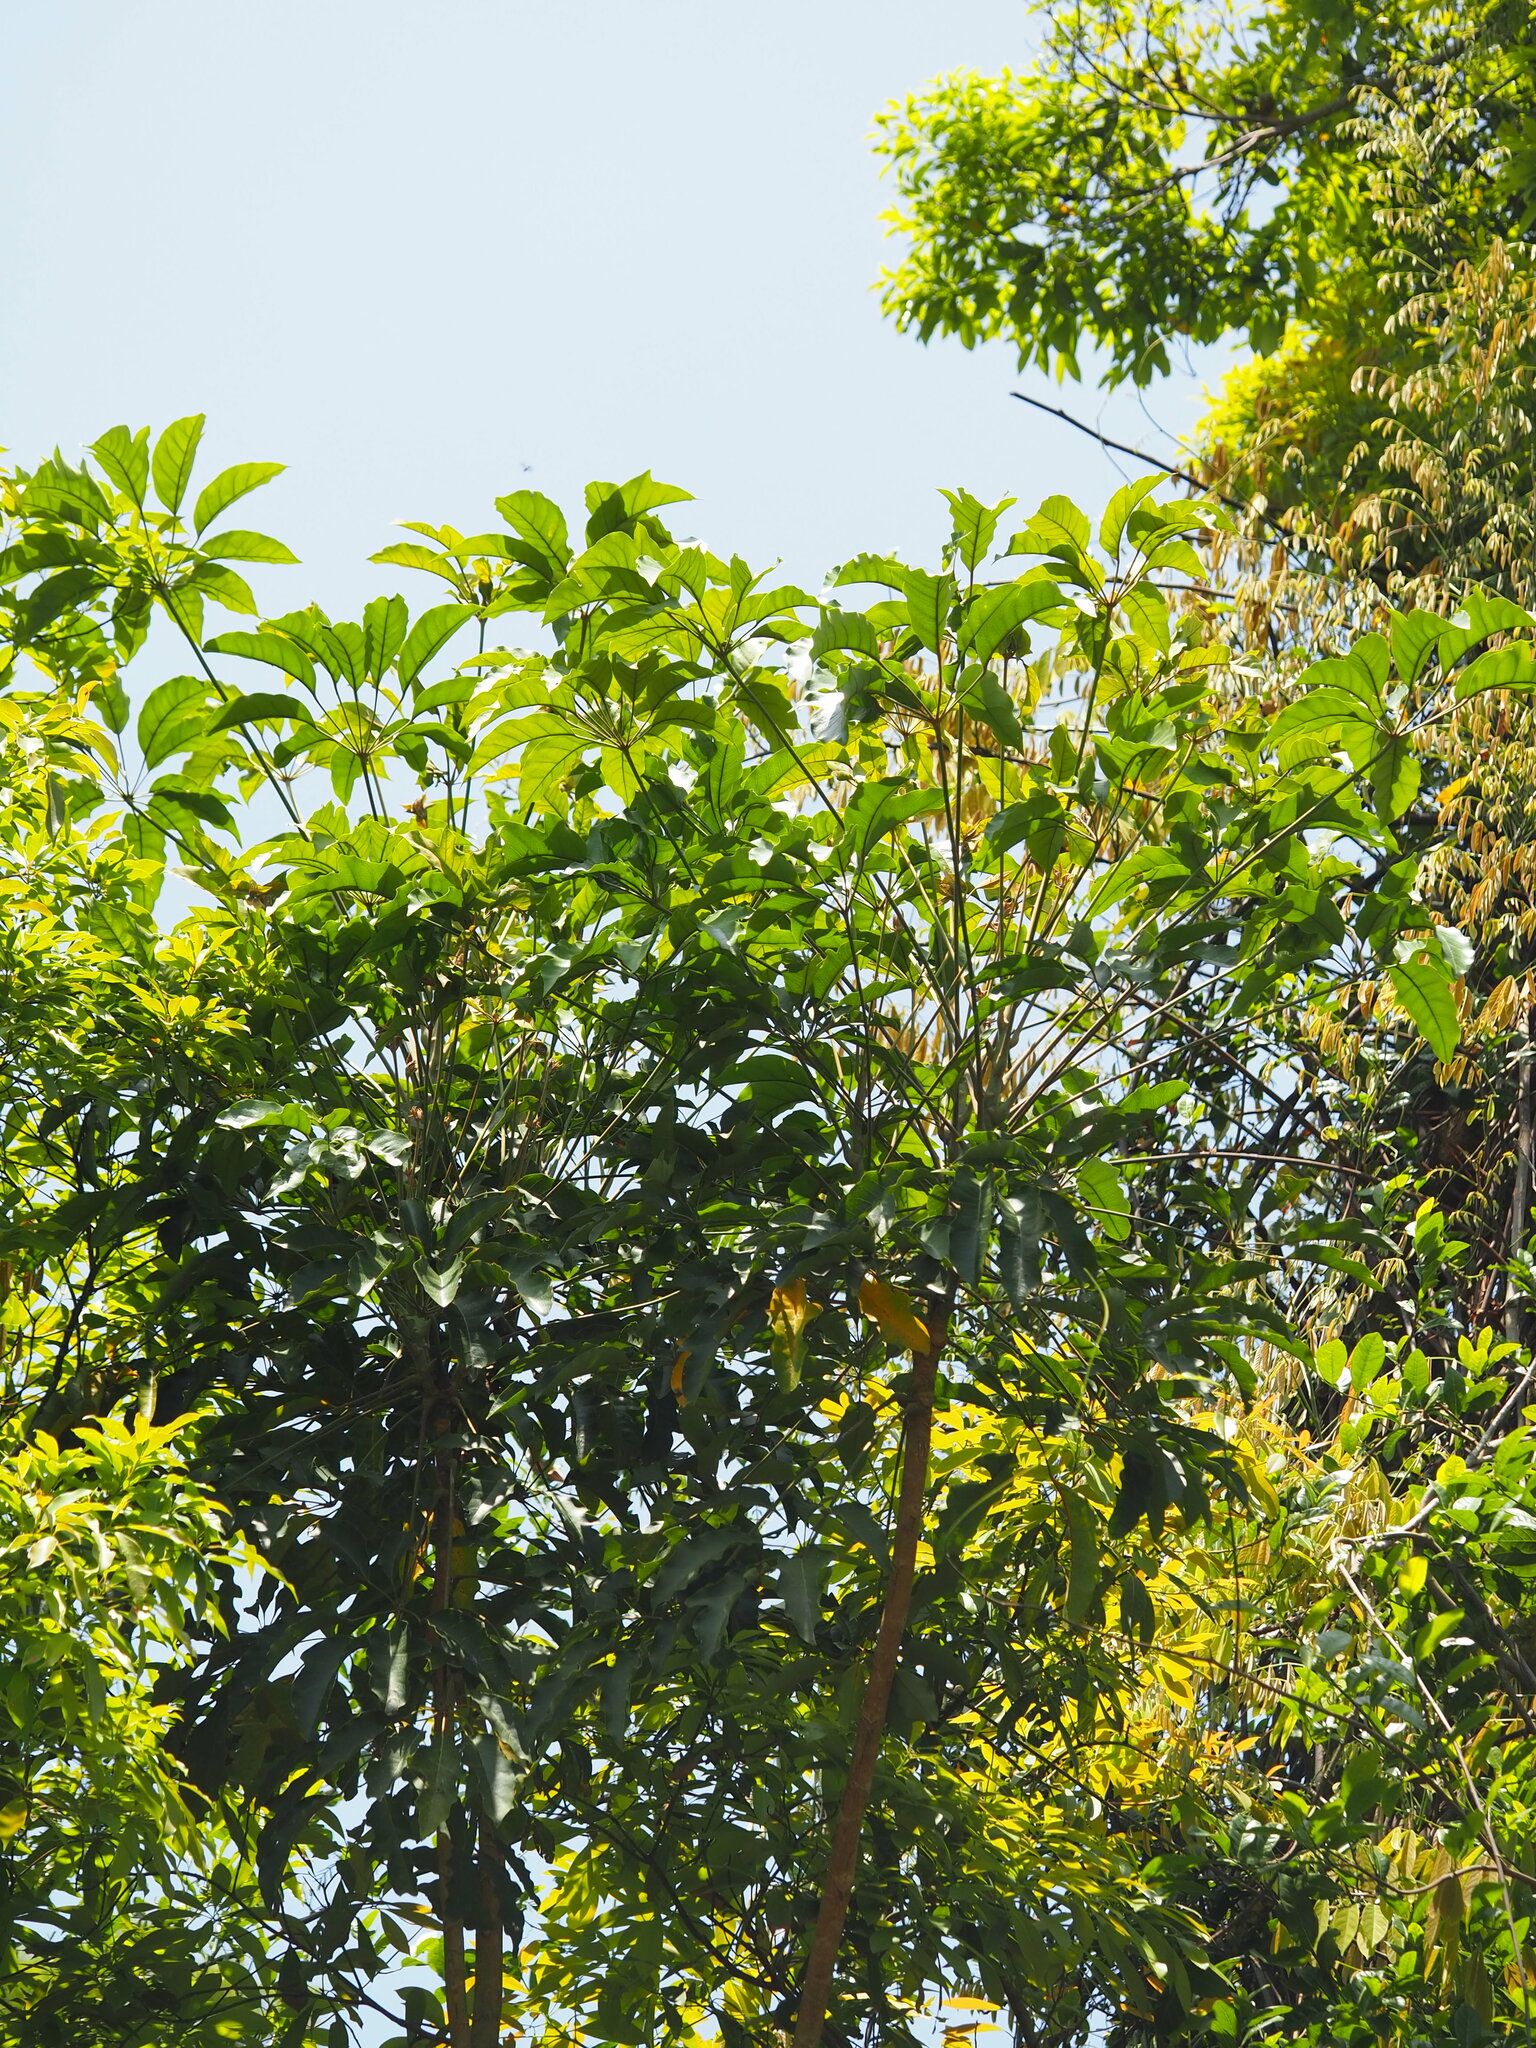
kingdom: Plantae
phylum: Tracheophyta
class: Magnoliopsida
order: Apiales
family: Araliaceae
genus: Heptapleurum
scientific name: Heptapleurum heptaphyllum
